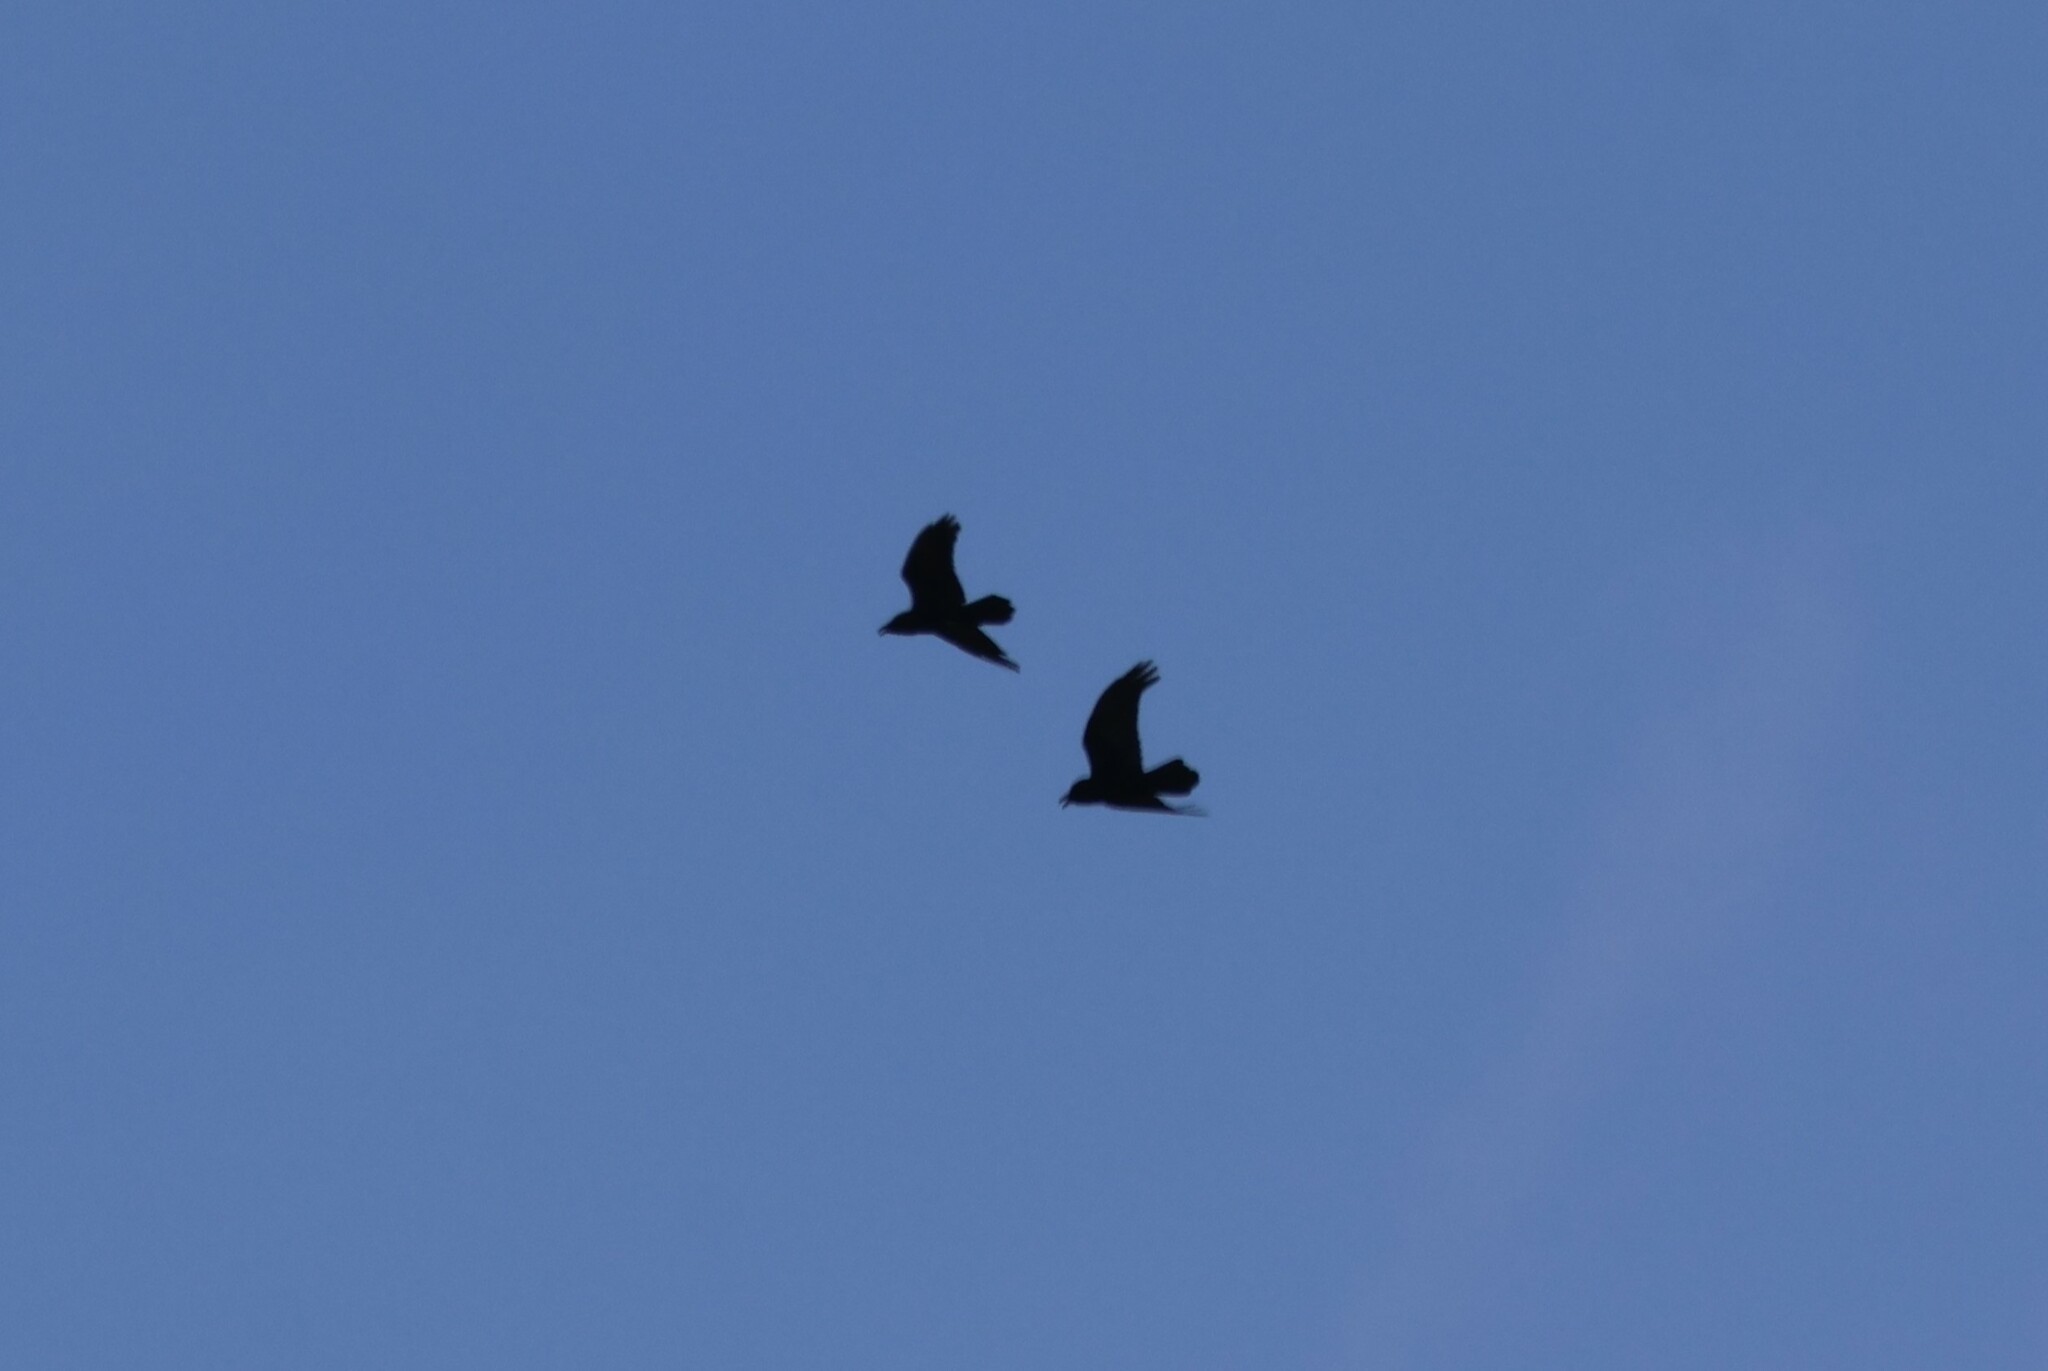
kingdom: Animalia
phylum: Chordata
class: Aves
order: Passeriformes
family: Corvidae
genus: Corvus
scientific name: Corvus corax
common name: Common raven
